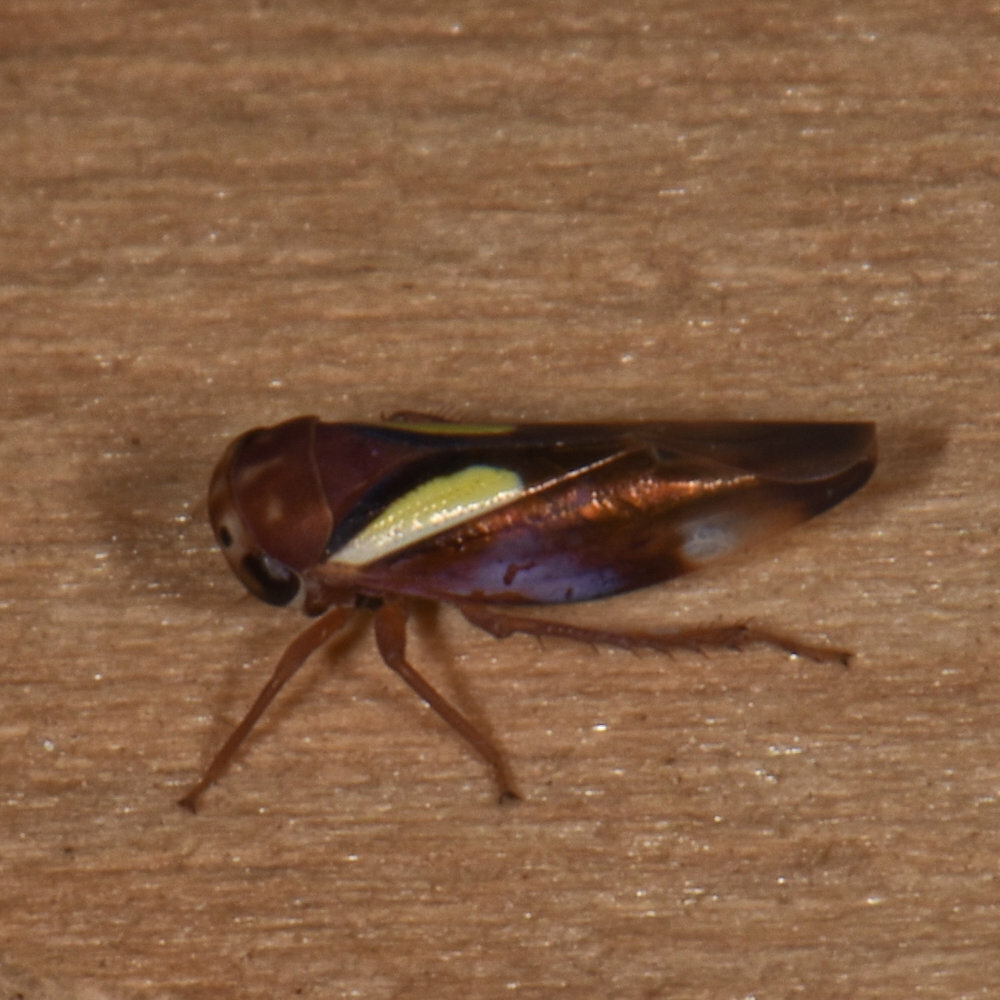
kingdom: Animalia
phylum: Arthropoda
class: Insecta
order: Hemiptera
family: Cicadellidae
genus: Balcanocerus
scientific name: Balcanocerus provancheri
